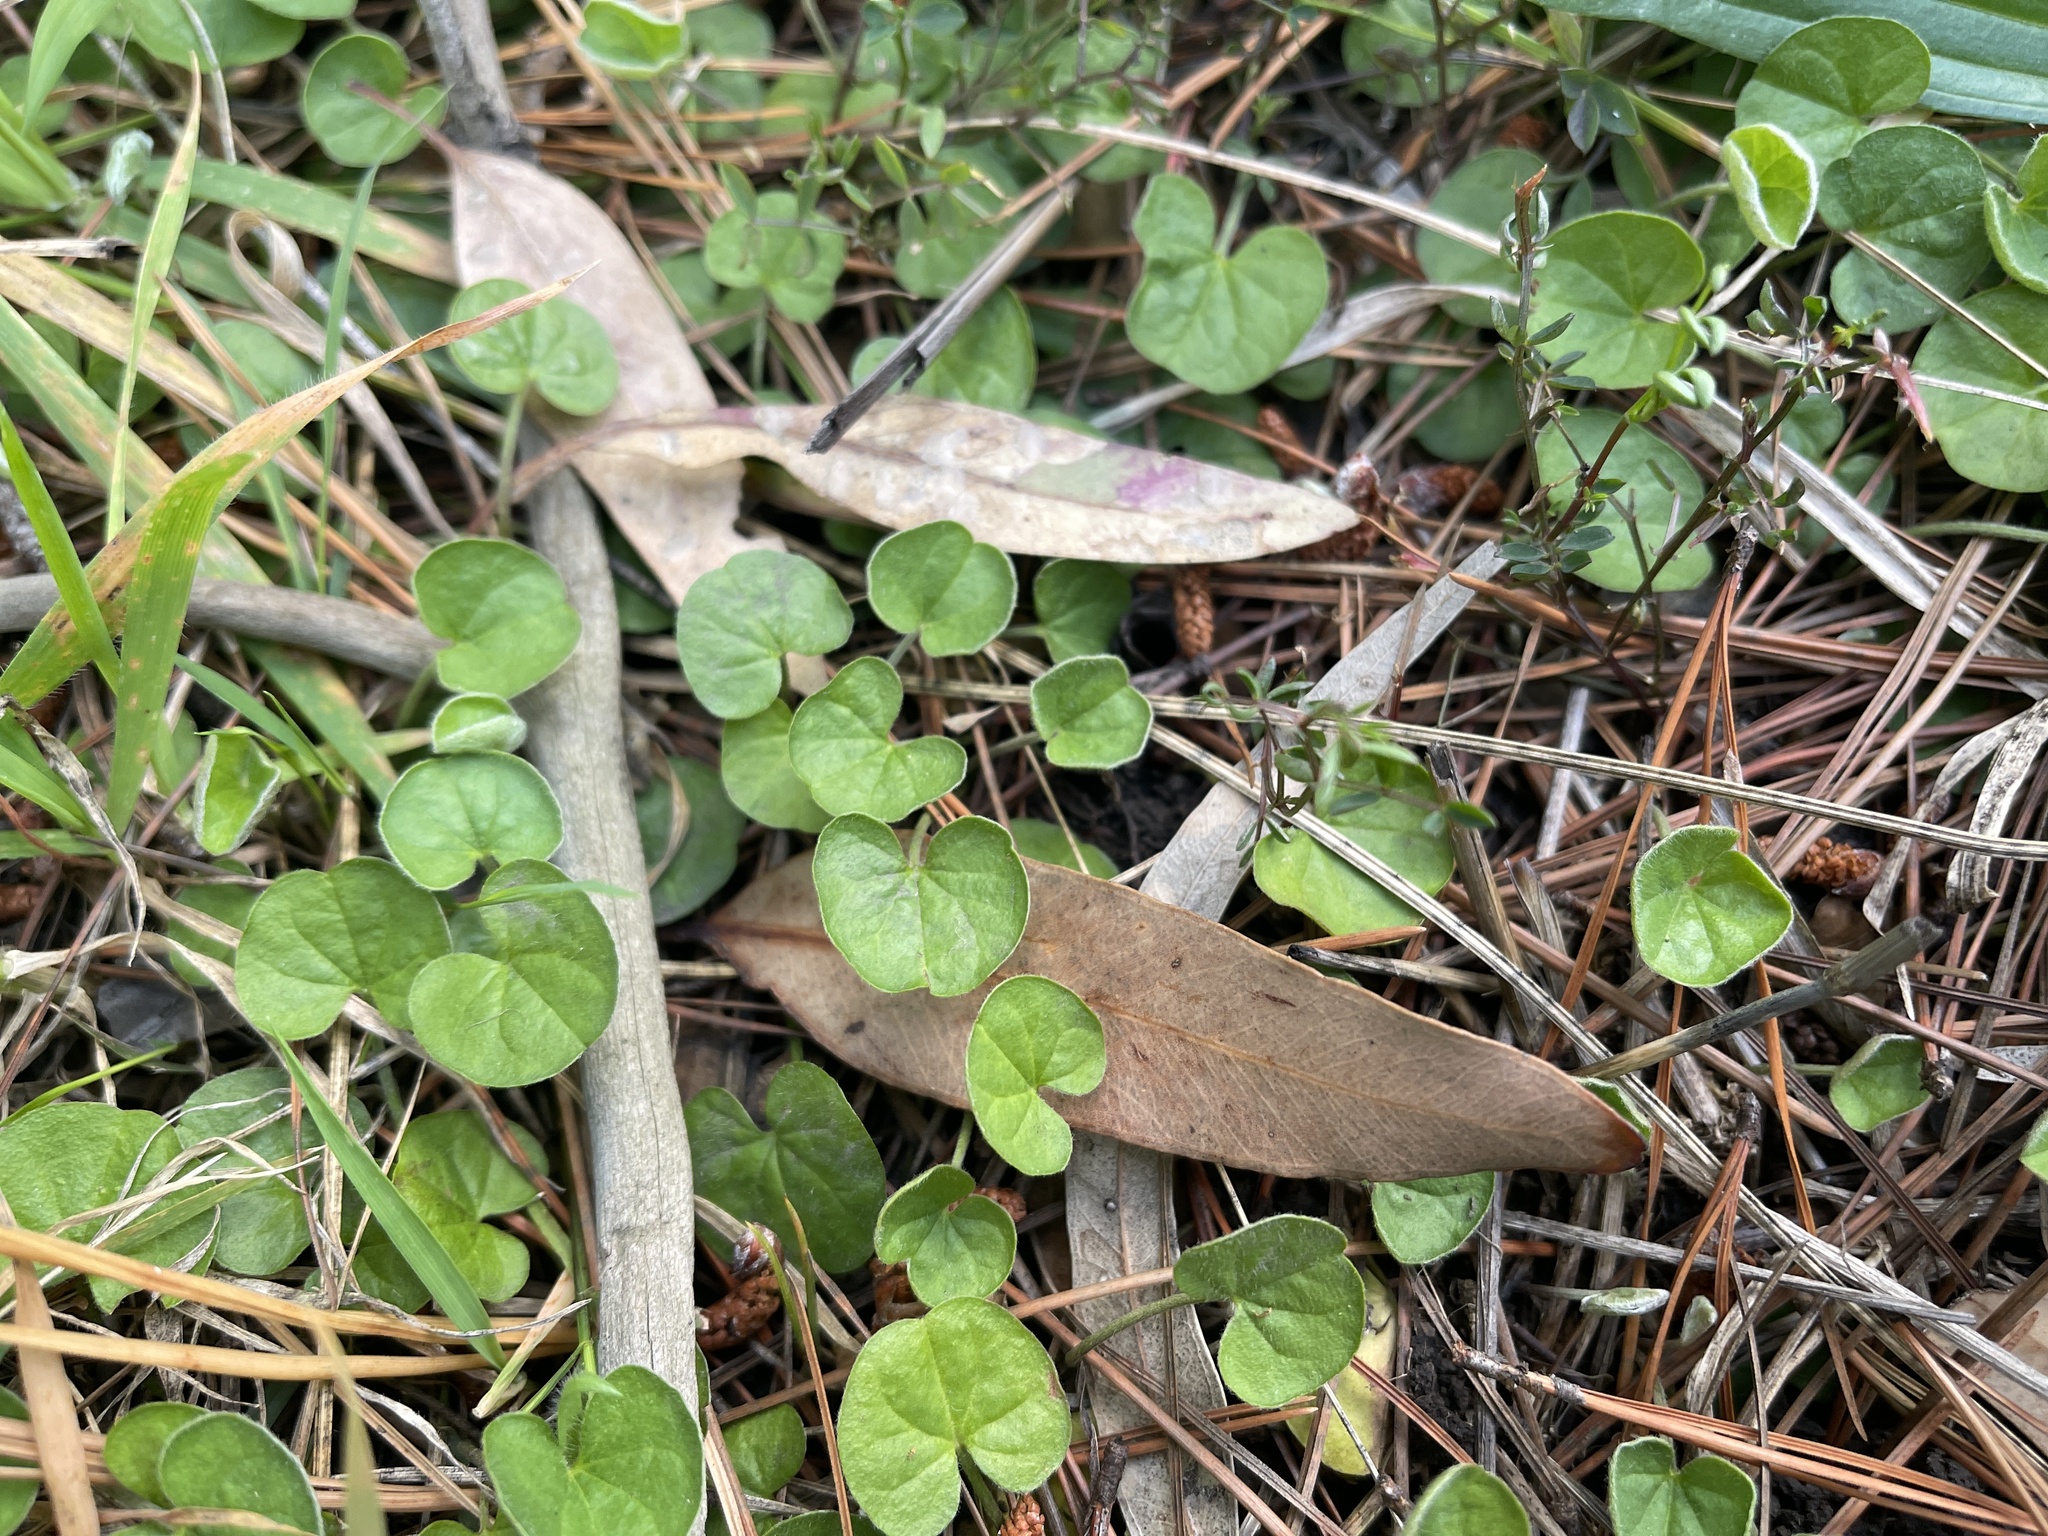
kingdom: Plantae
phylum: Tracheophyta
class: Magnoliopsida
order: Solanales
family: Convolvulaceae
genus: Dichondra
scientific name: Dichondra repens
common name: Kidneyweed
